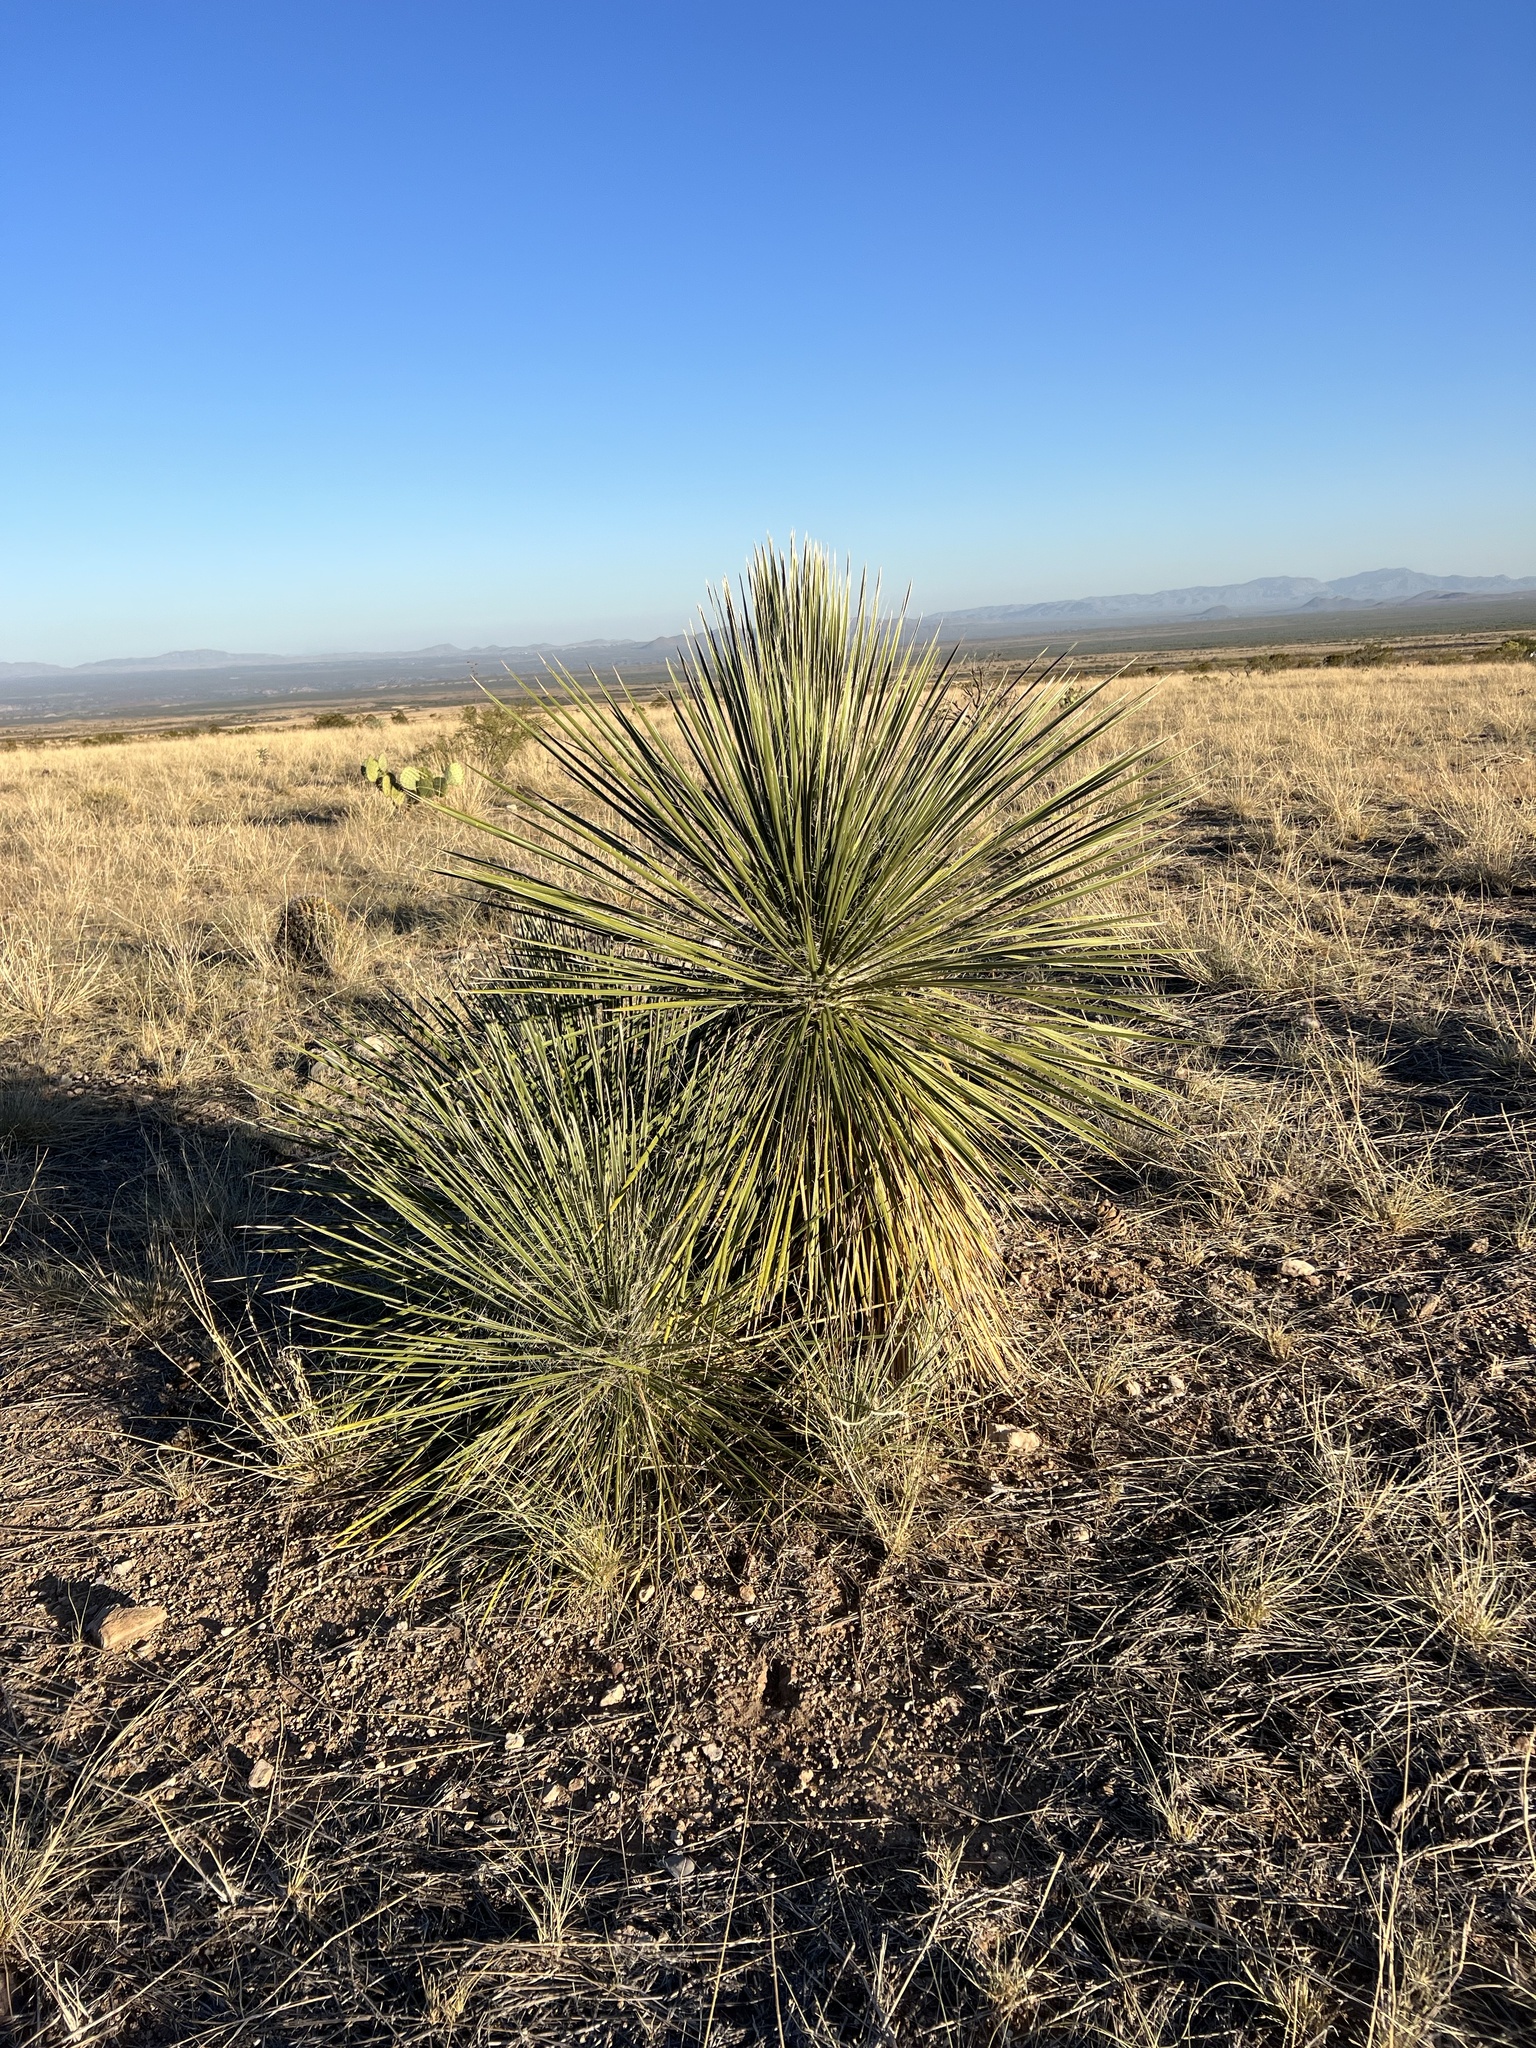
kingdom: Plantae
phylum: Tracheophyta
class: Liliopsida
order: Asparagales
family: Asparagaceae
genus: Yucca
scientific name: Yucca elata
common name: Palmella
